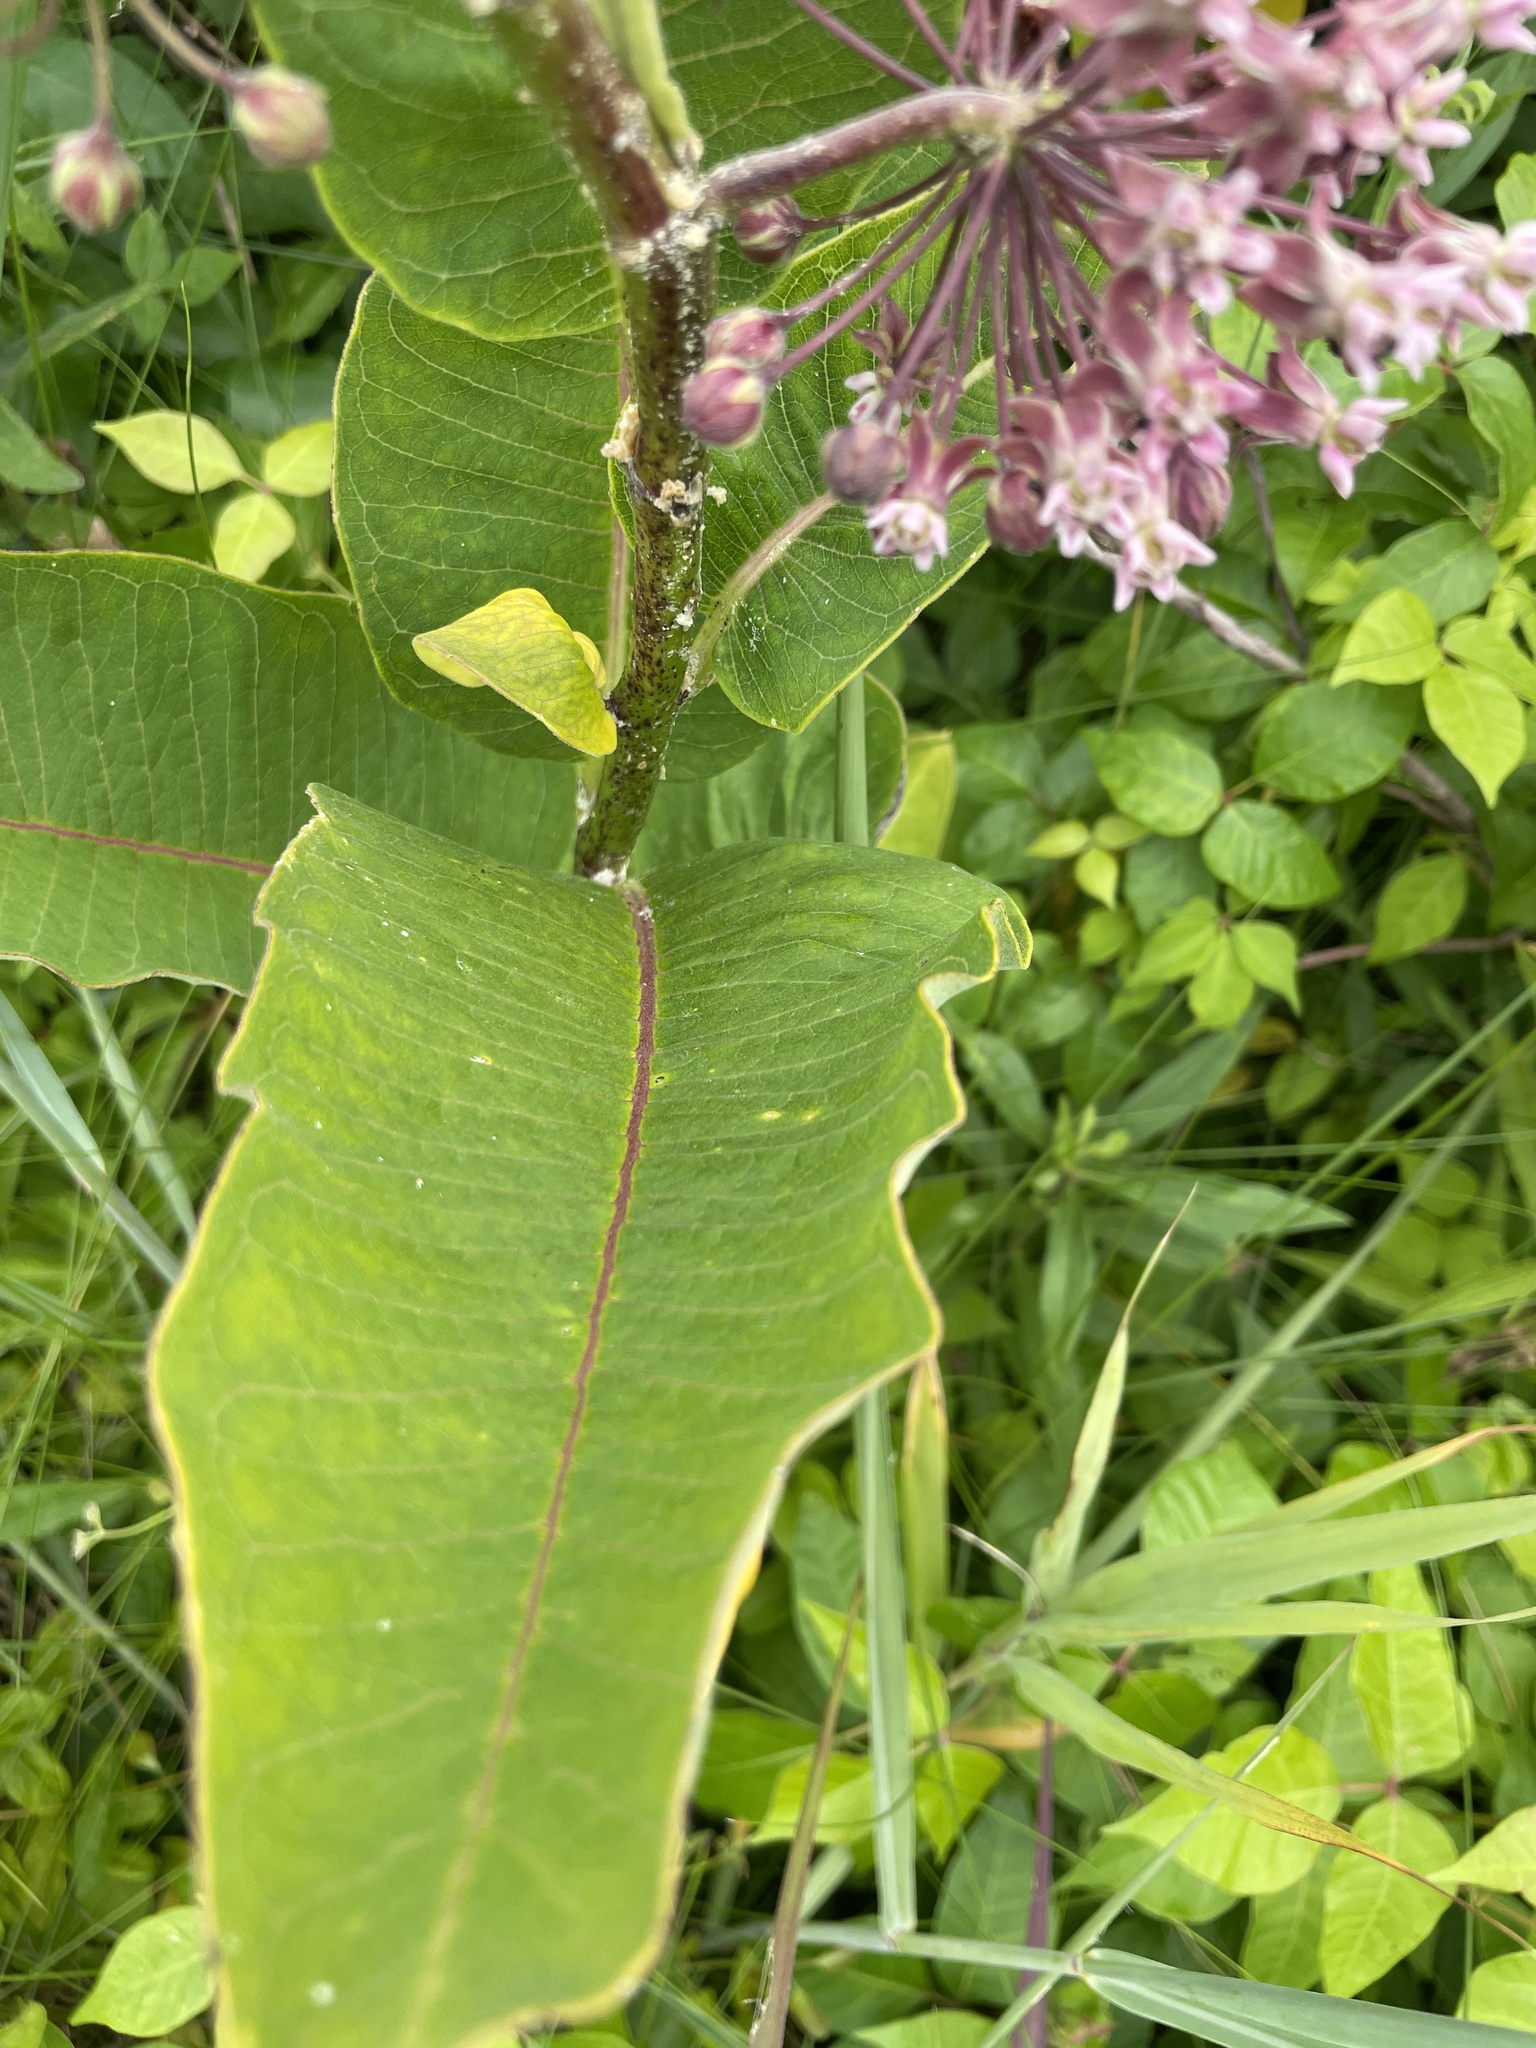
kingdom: Plantae
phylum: Tracheophyta
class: Magnoliopsida
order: Gentianales
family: Apocynaceae
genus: Asclepias
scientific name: Asclepias syriaca
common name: Common milkweed
